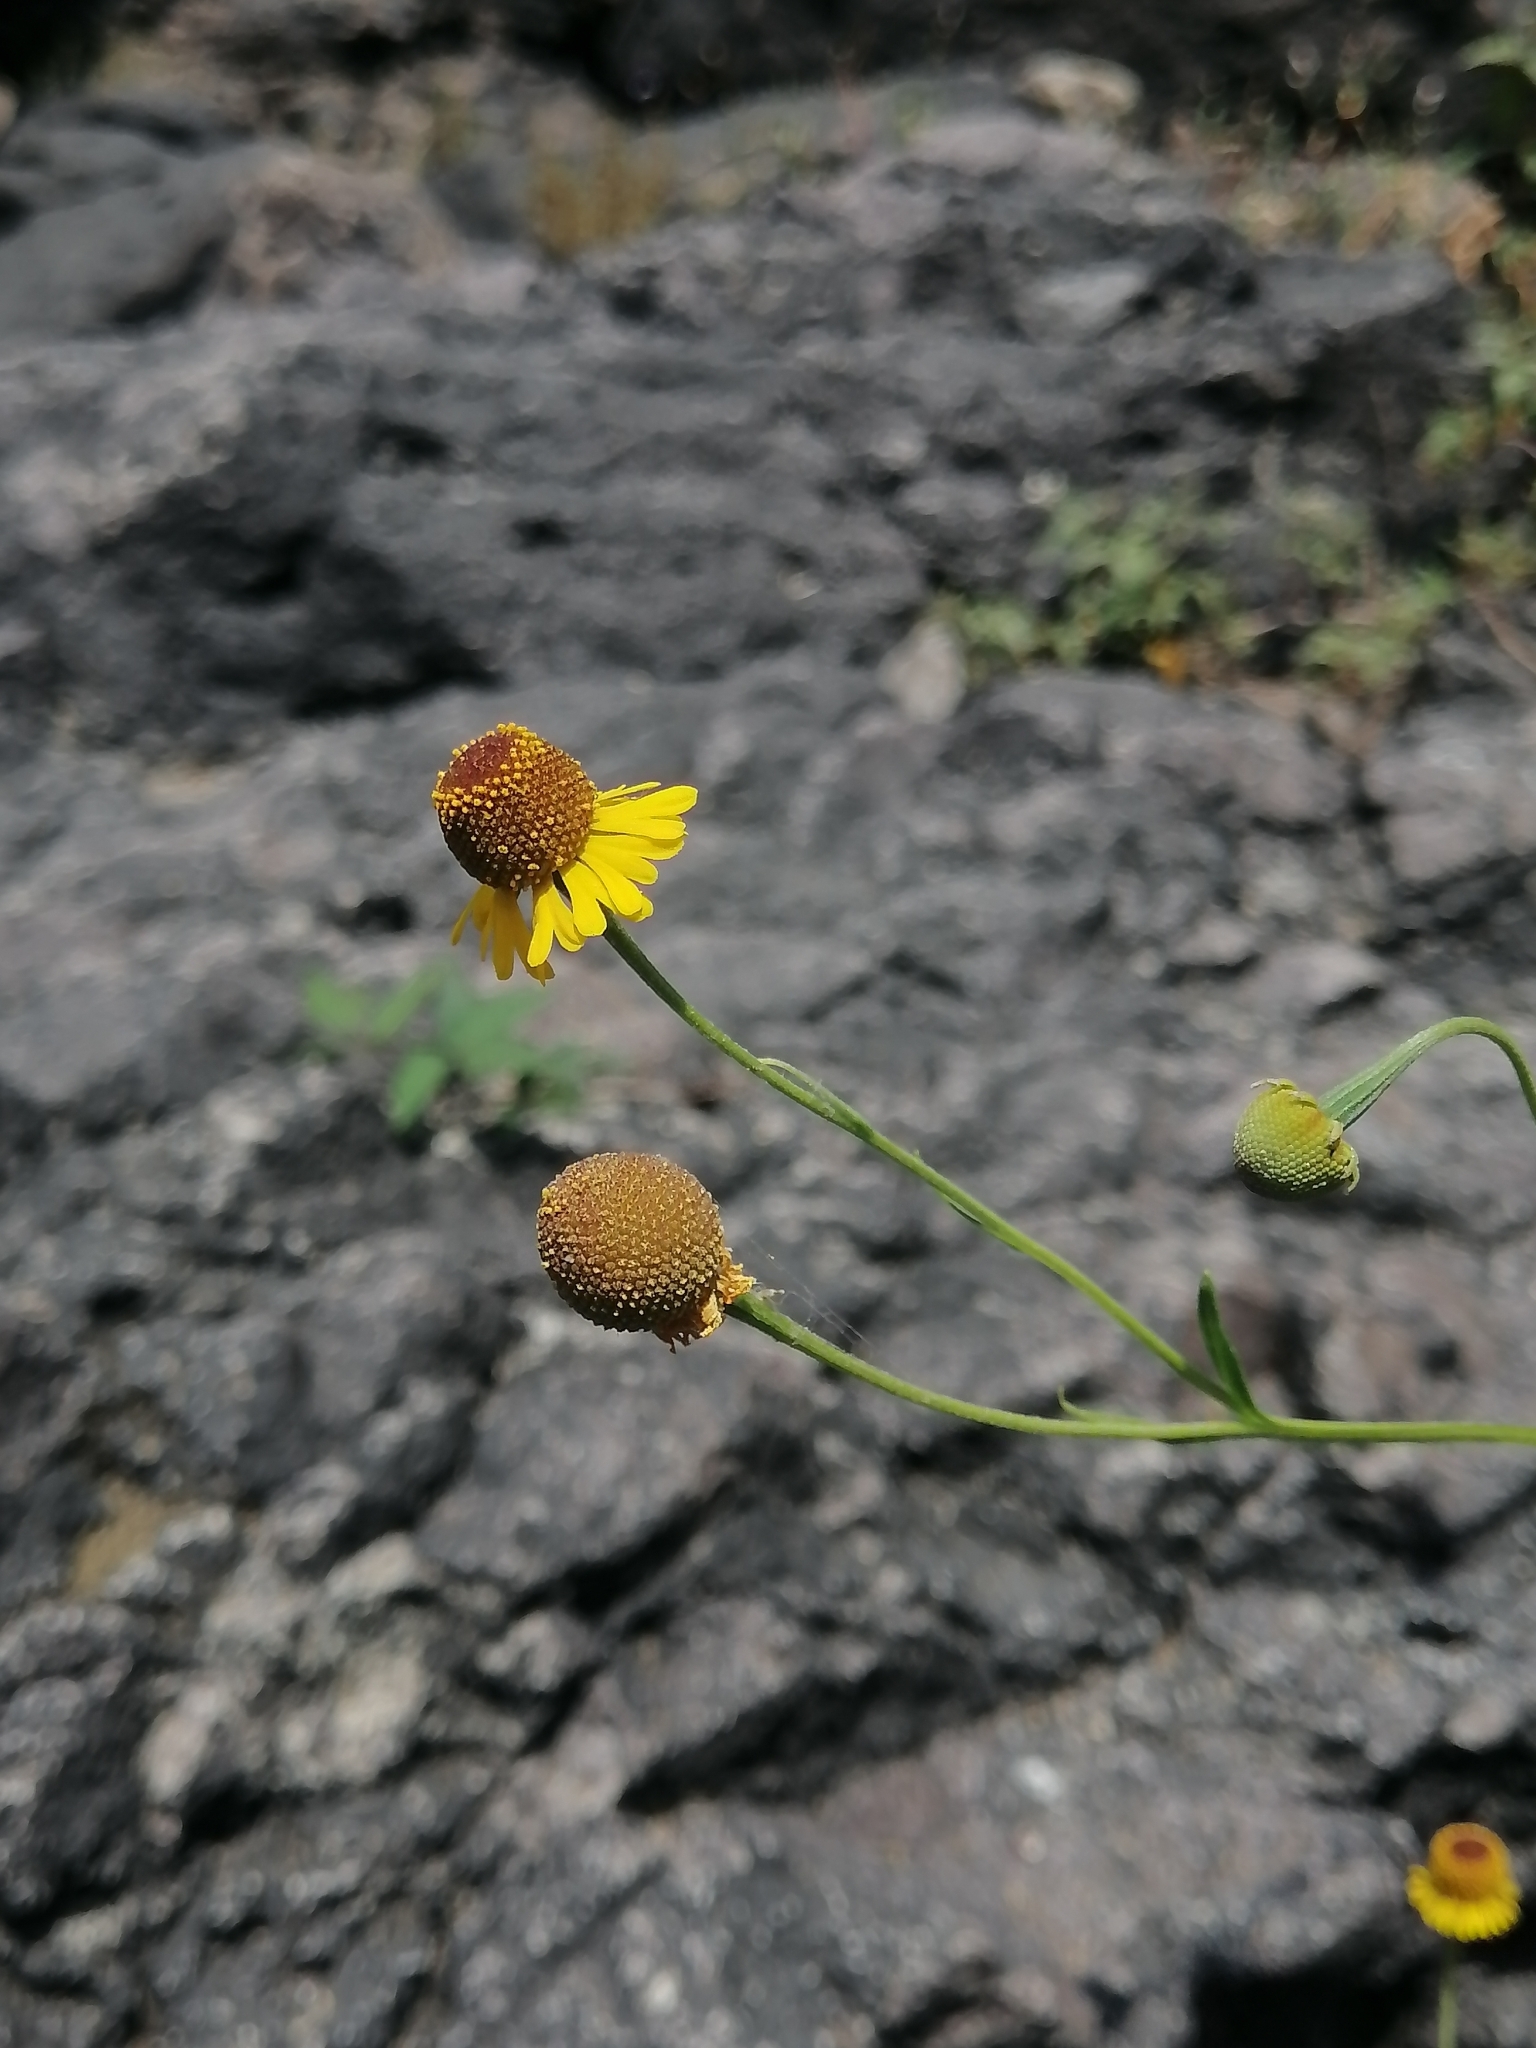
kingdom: Plantae
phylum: Tracheophyta
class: Magnoliopsida
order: Asterales
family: Asteraceae
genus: Helenium
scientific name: Helenium mexicanum
